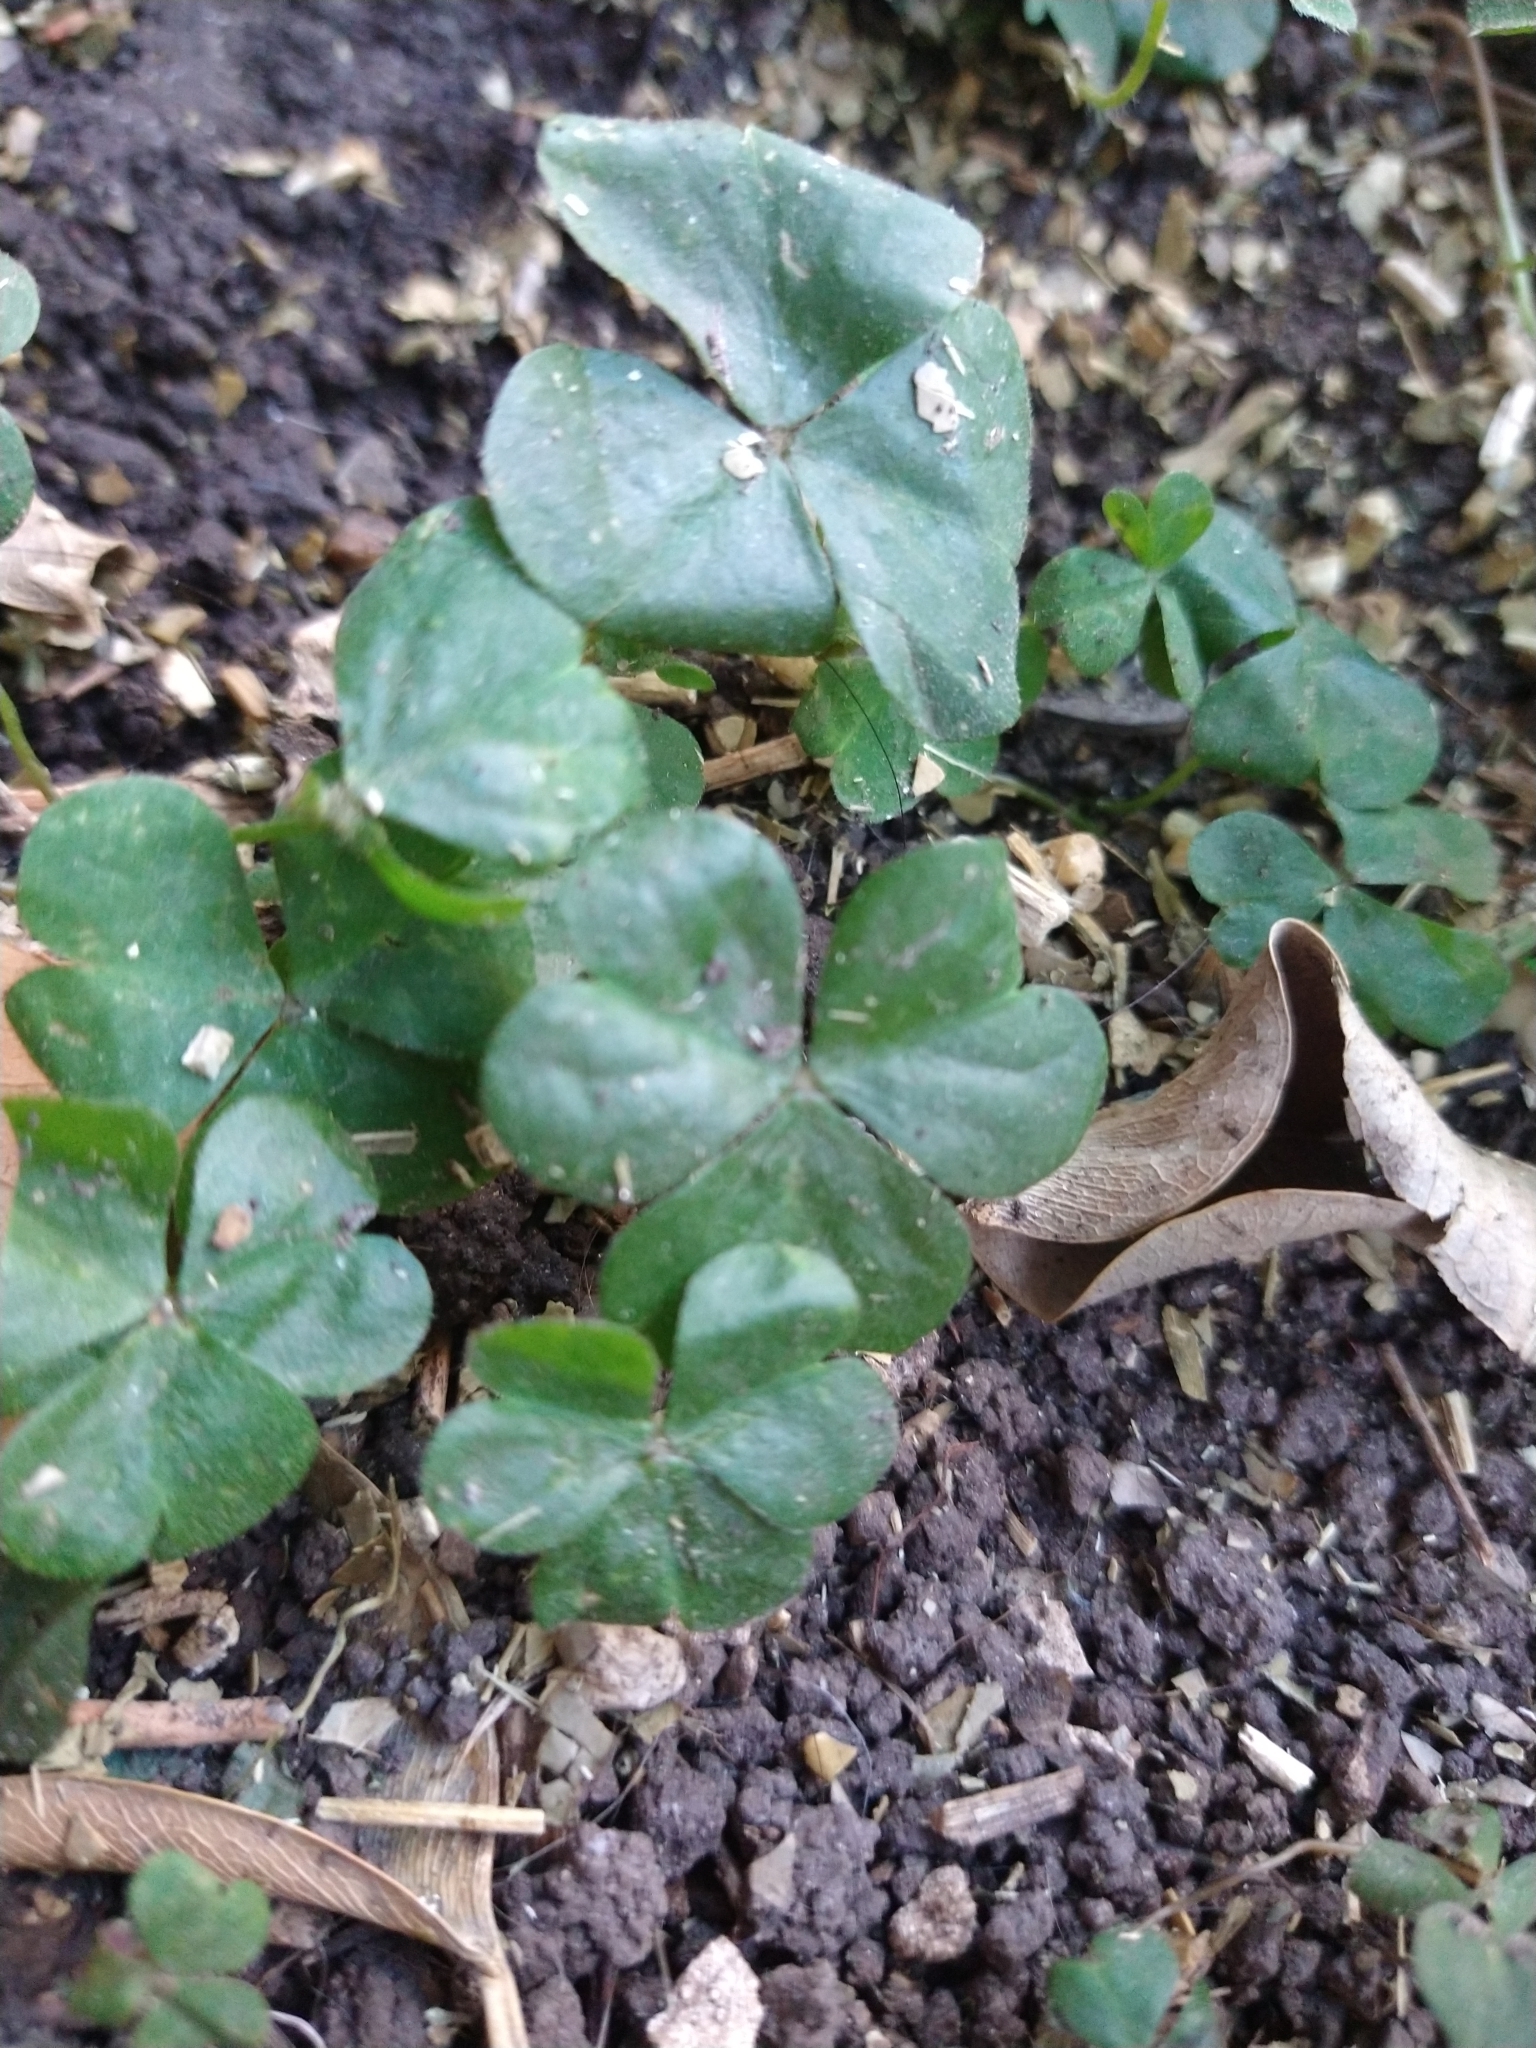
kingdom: Plantae
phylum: Tracheophyta
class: Magnoliopsida
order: Oxalidales
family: Oxalidaceae
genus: Oxalis
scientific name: Oxalis debilis
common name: Large-flowered pink-sorrel
